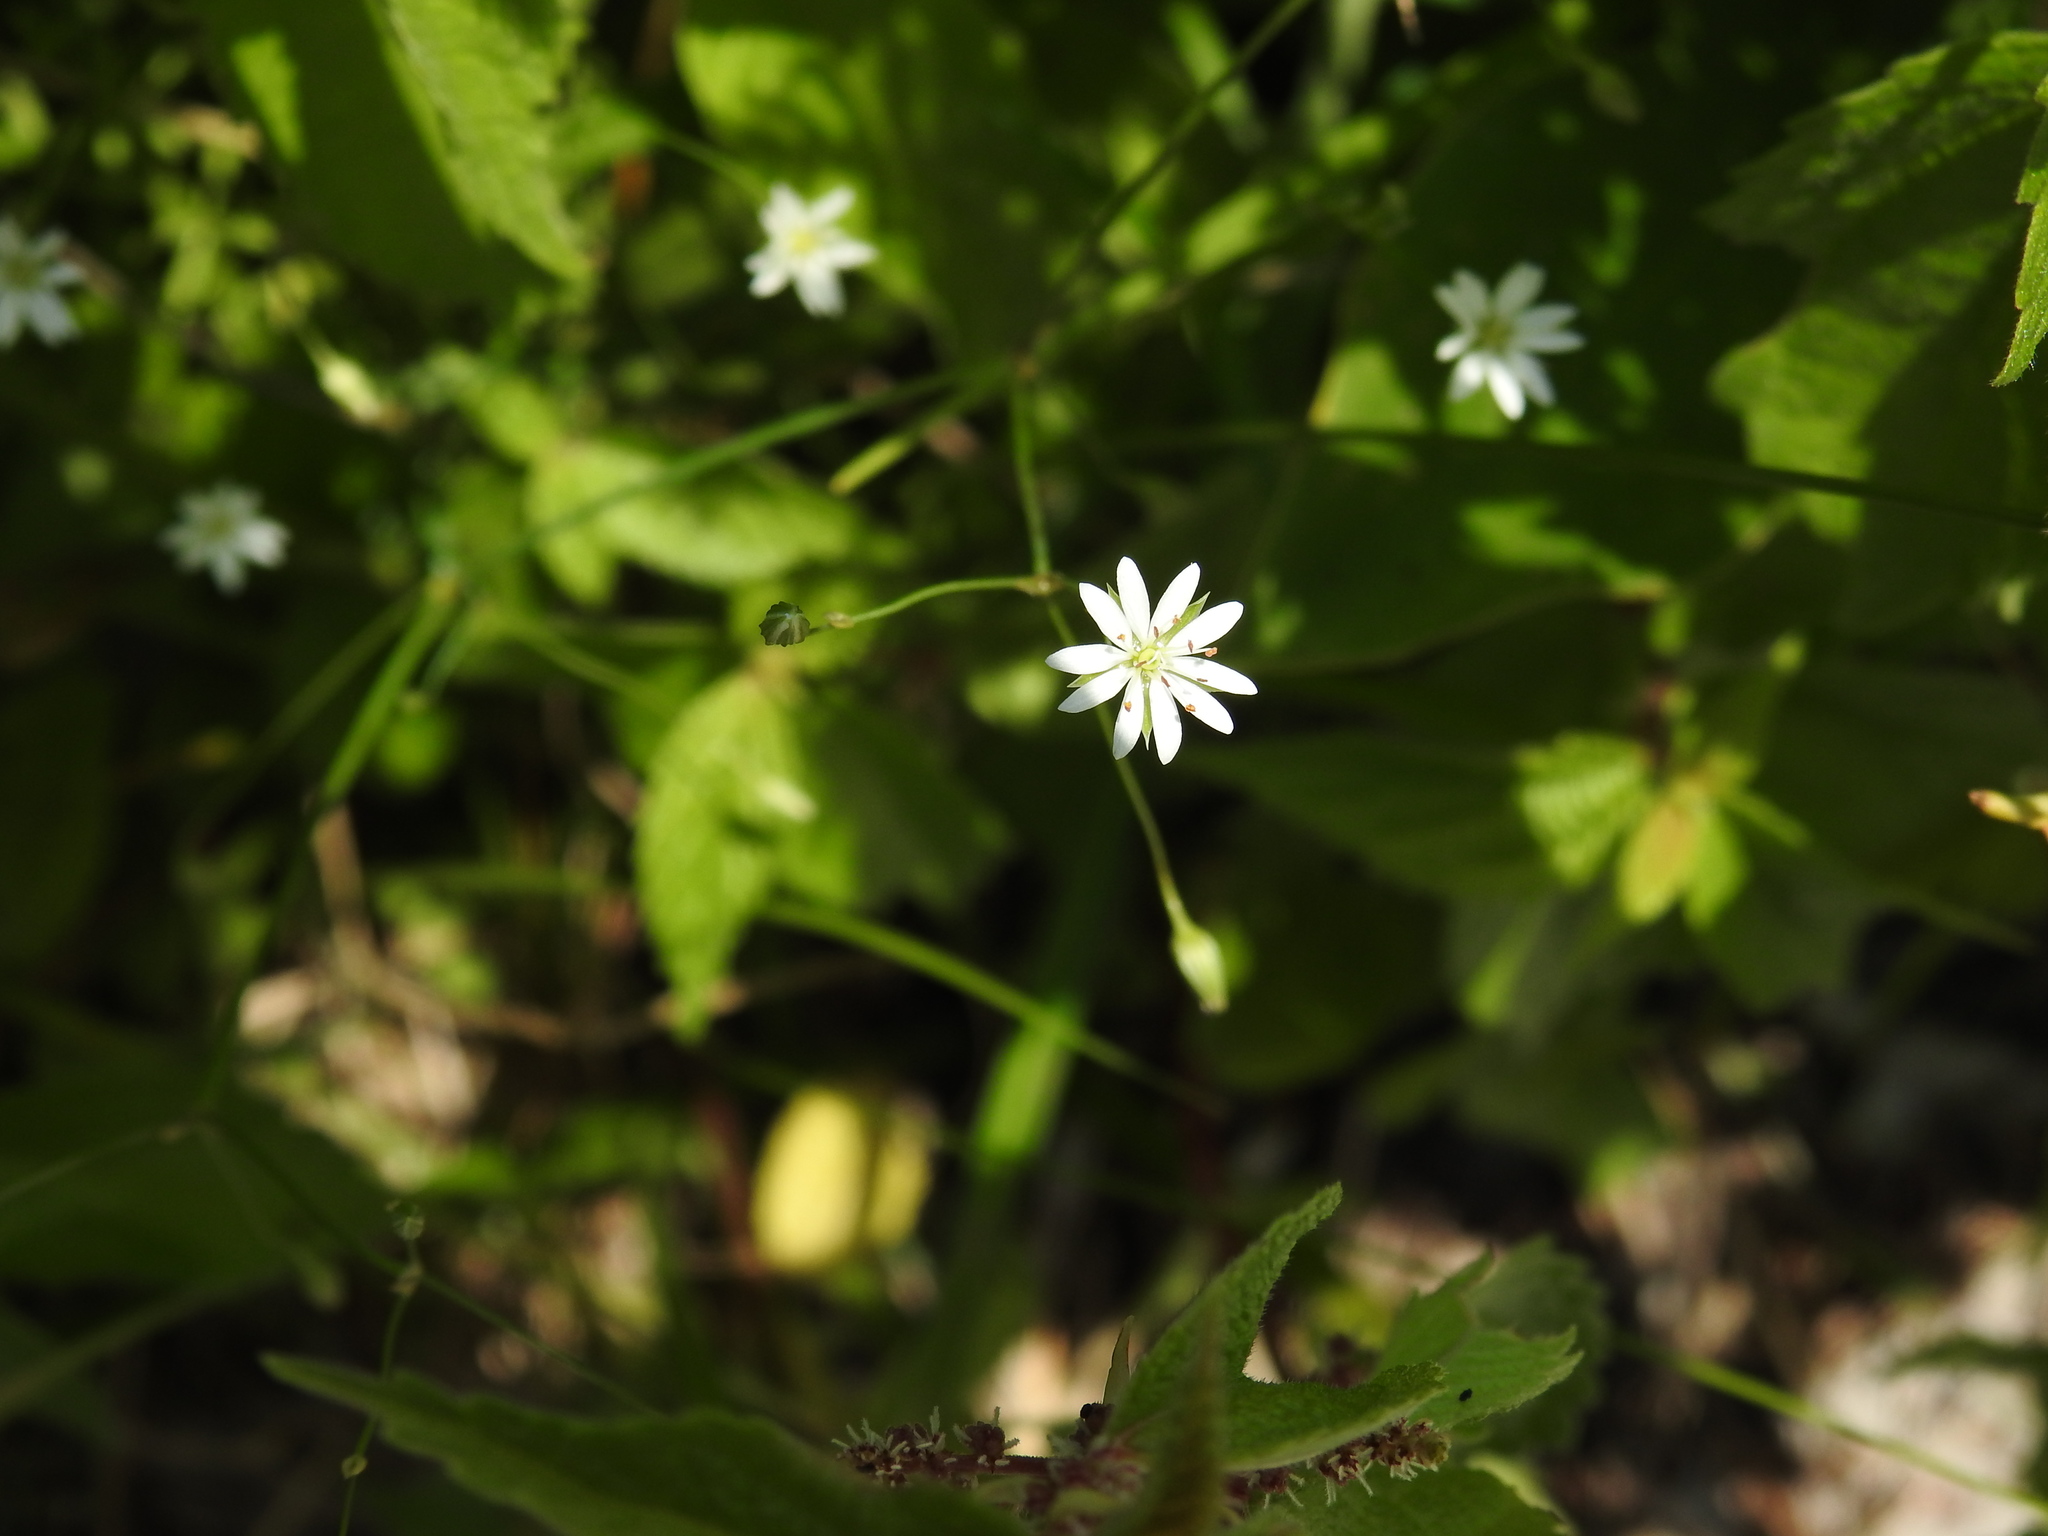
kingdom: Plantae
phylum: Tracheophyta
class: Magnoliopsida
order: Caryophyllales
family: Caryophyllaceae
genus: Stellaria
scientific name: Stellaria graminea
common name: Grass-like starwort
